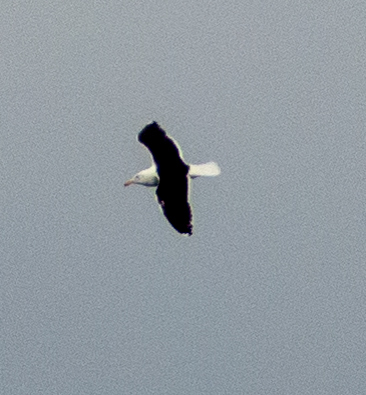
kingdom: Animalia
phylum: Chordata
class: Aves
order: Charadriiformes
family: Laridae
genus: Larus
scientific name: Larus marinus
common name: Great black-backed gull
